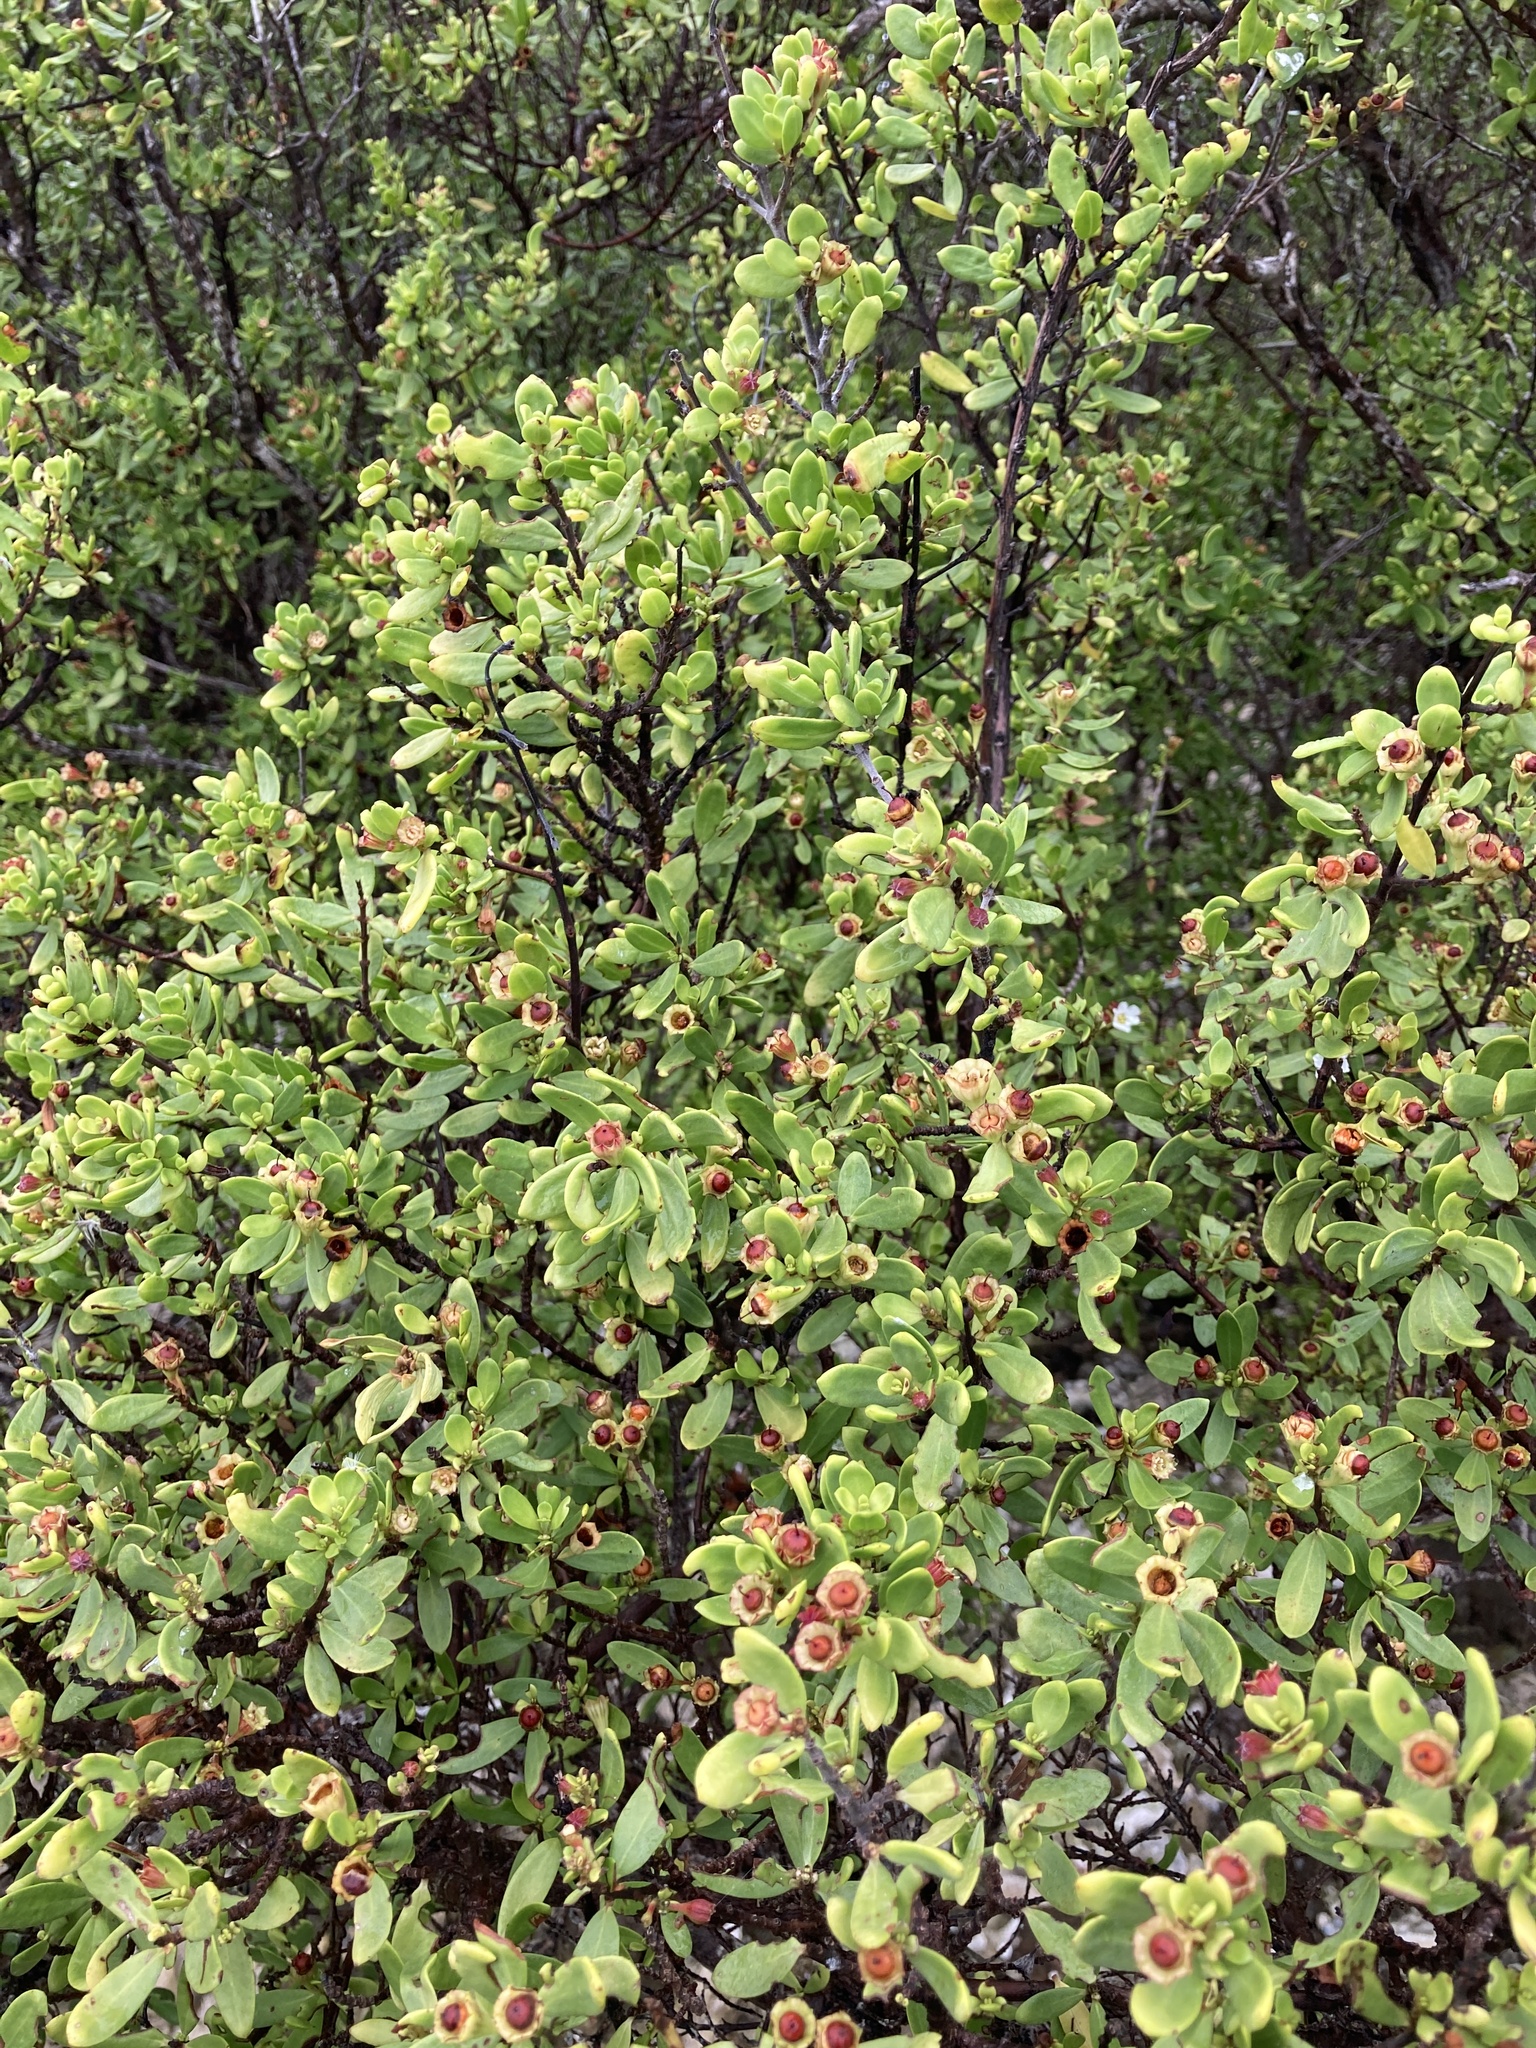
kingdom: Plantae
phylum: Tracheophyta
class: Magnoliopsida
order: Myrtales
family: Lythraceae
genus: Pemphis
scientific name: Pemphis acidula
